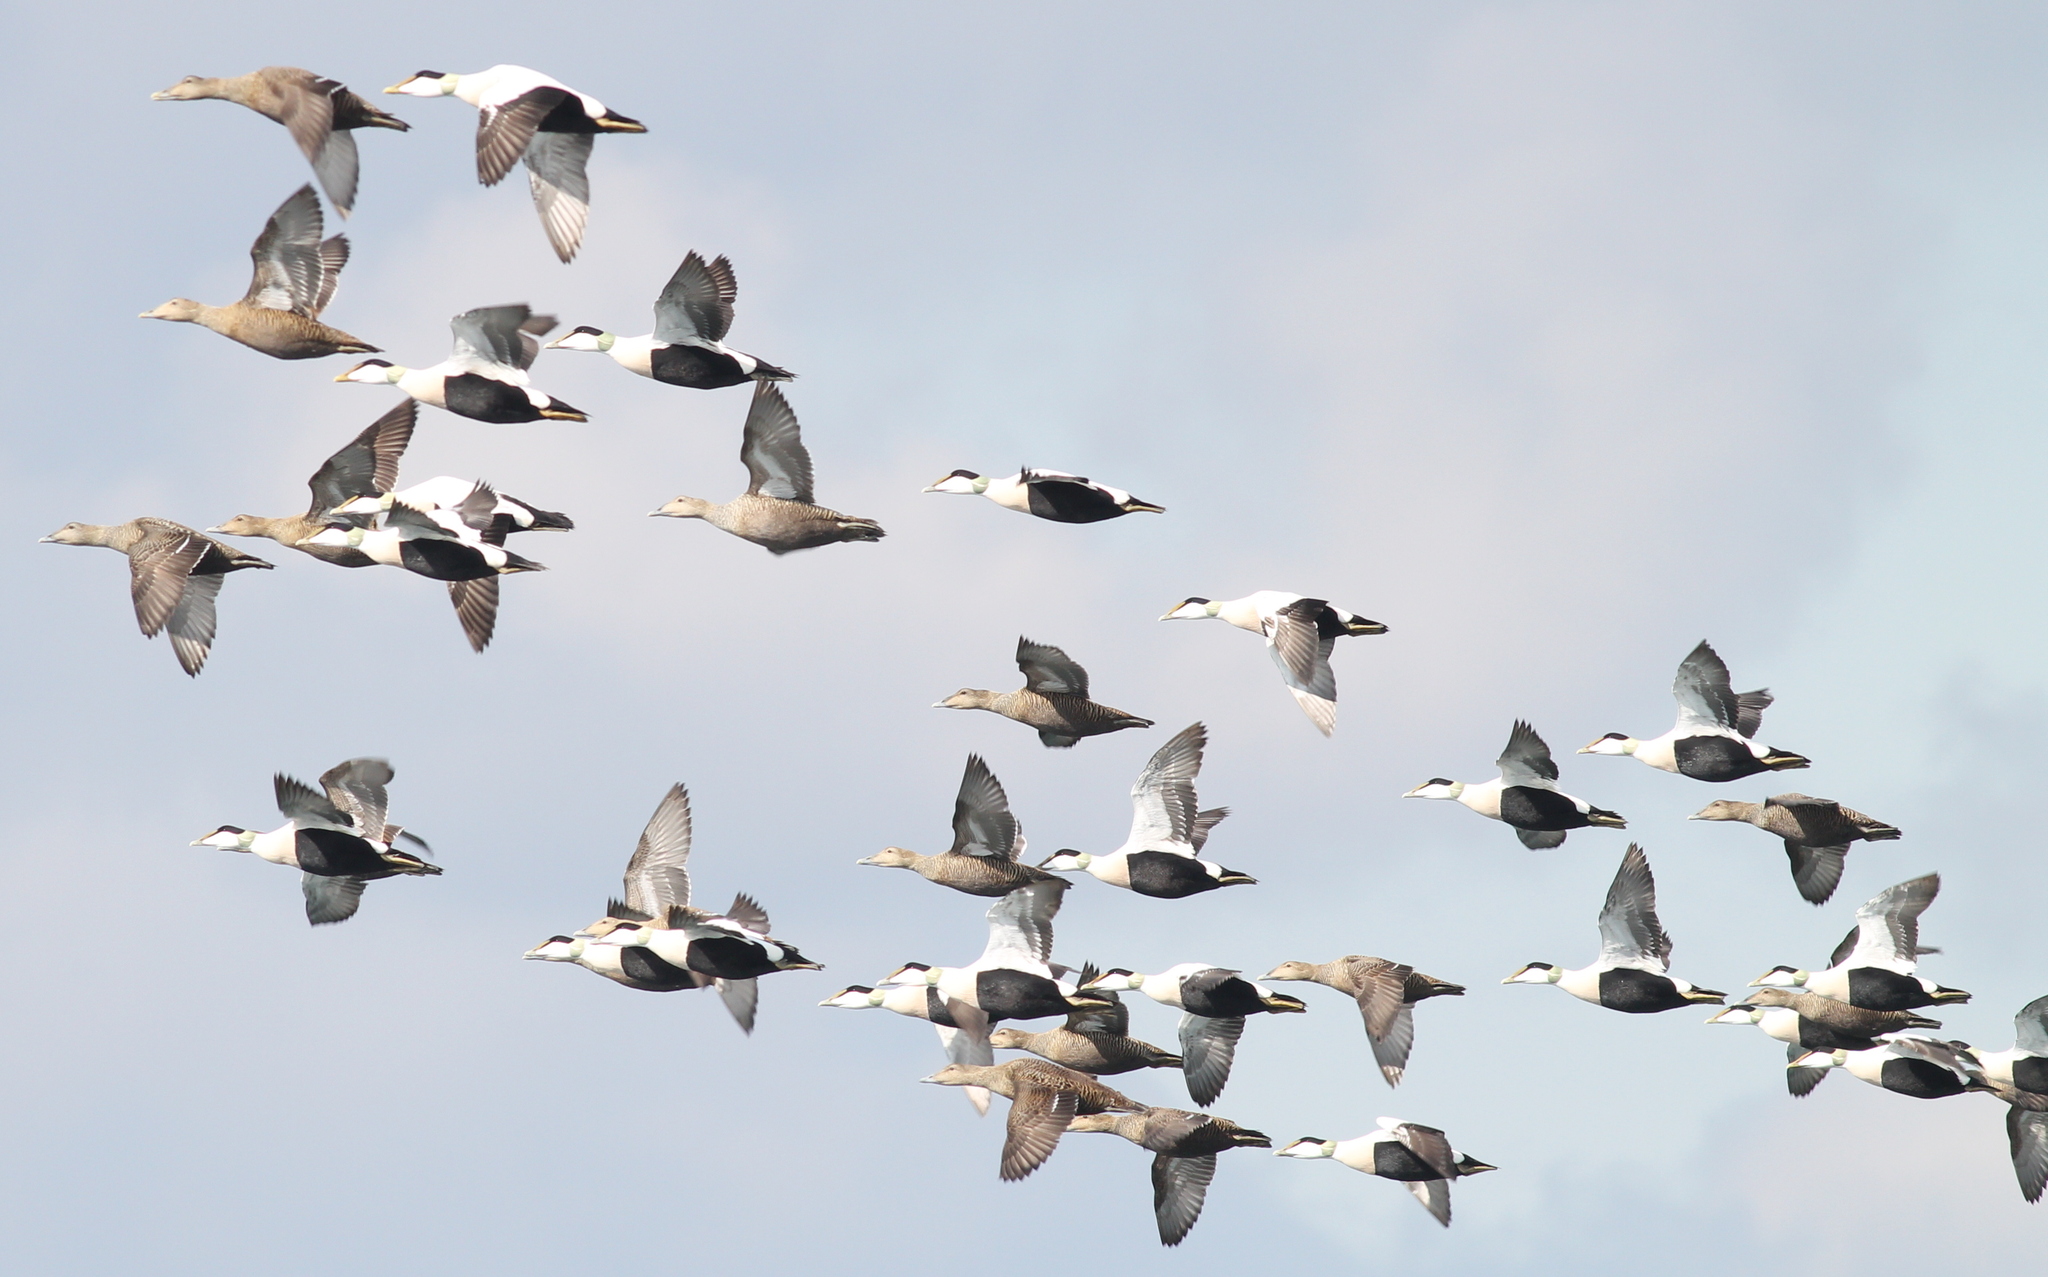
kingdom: Animalia
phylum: Chordata
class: Aves
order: Anseriformes
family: Anatidae
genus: Somateria
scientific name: Somateria mollissima
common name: Common eider
